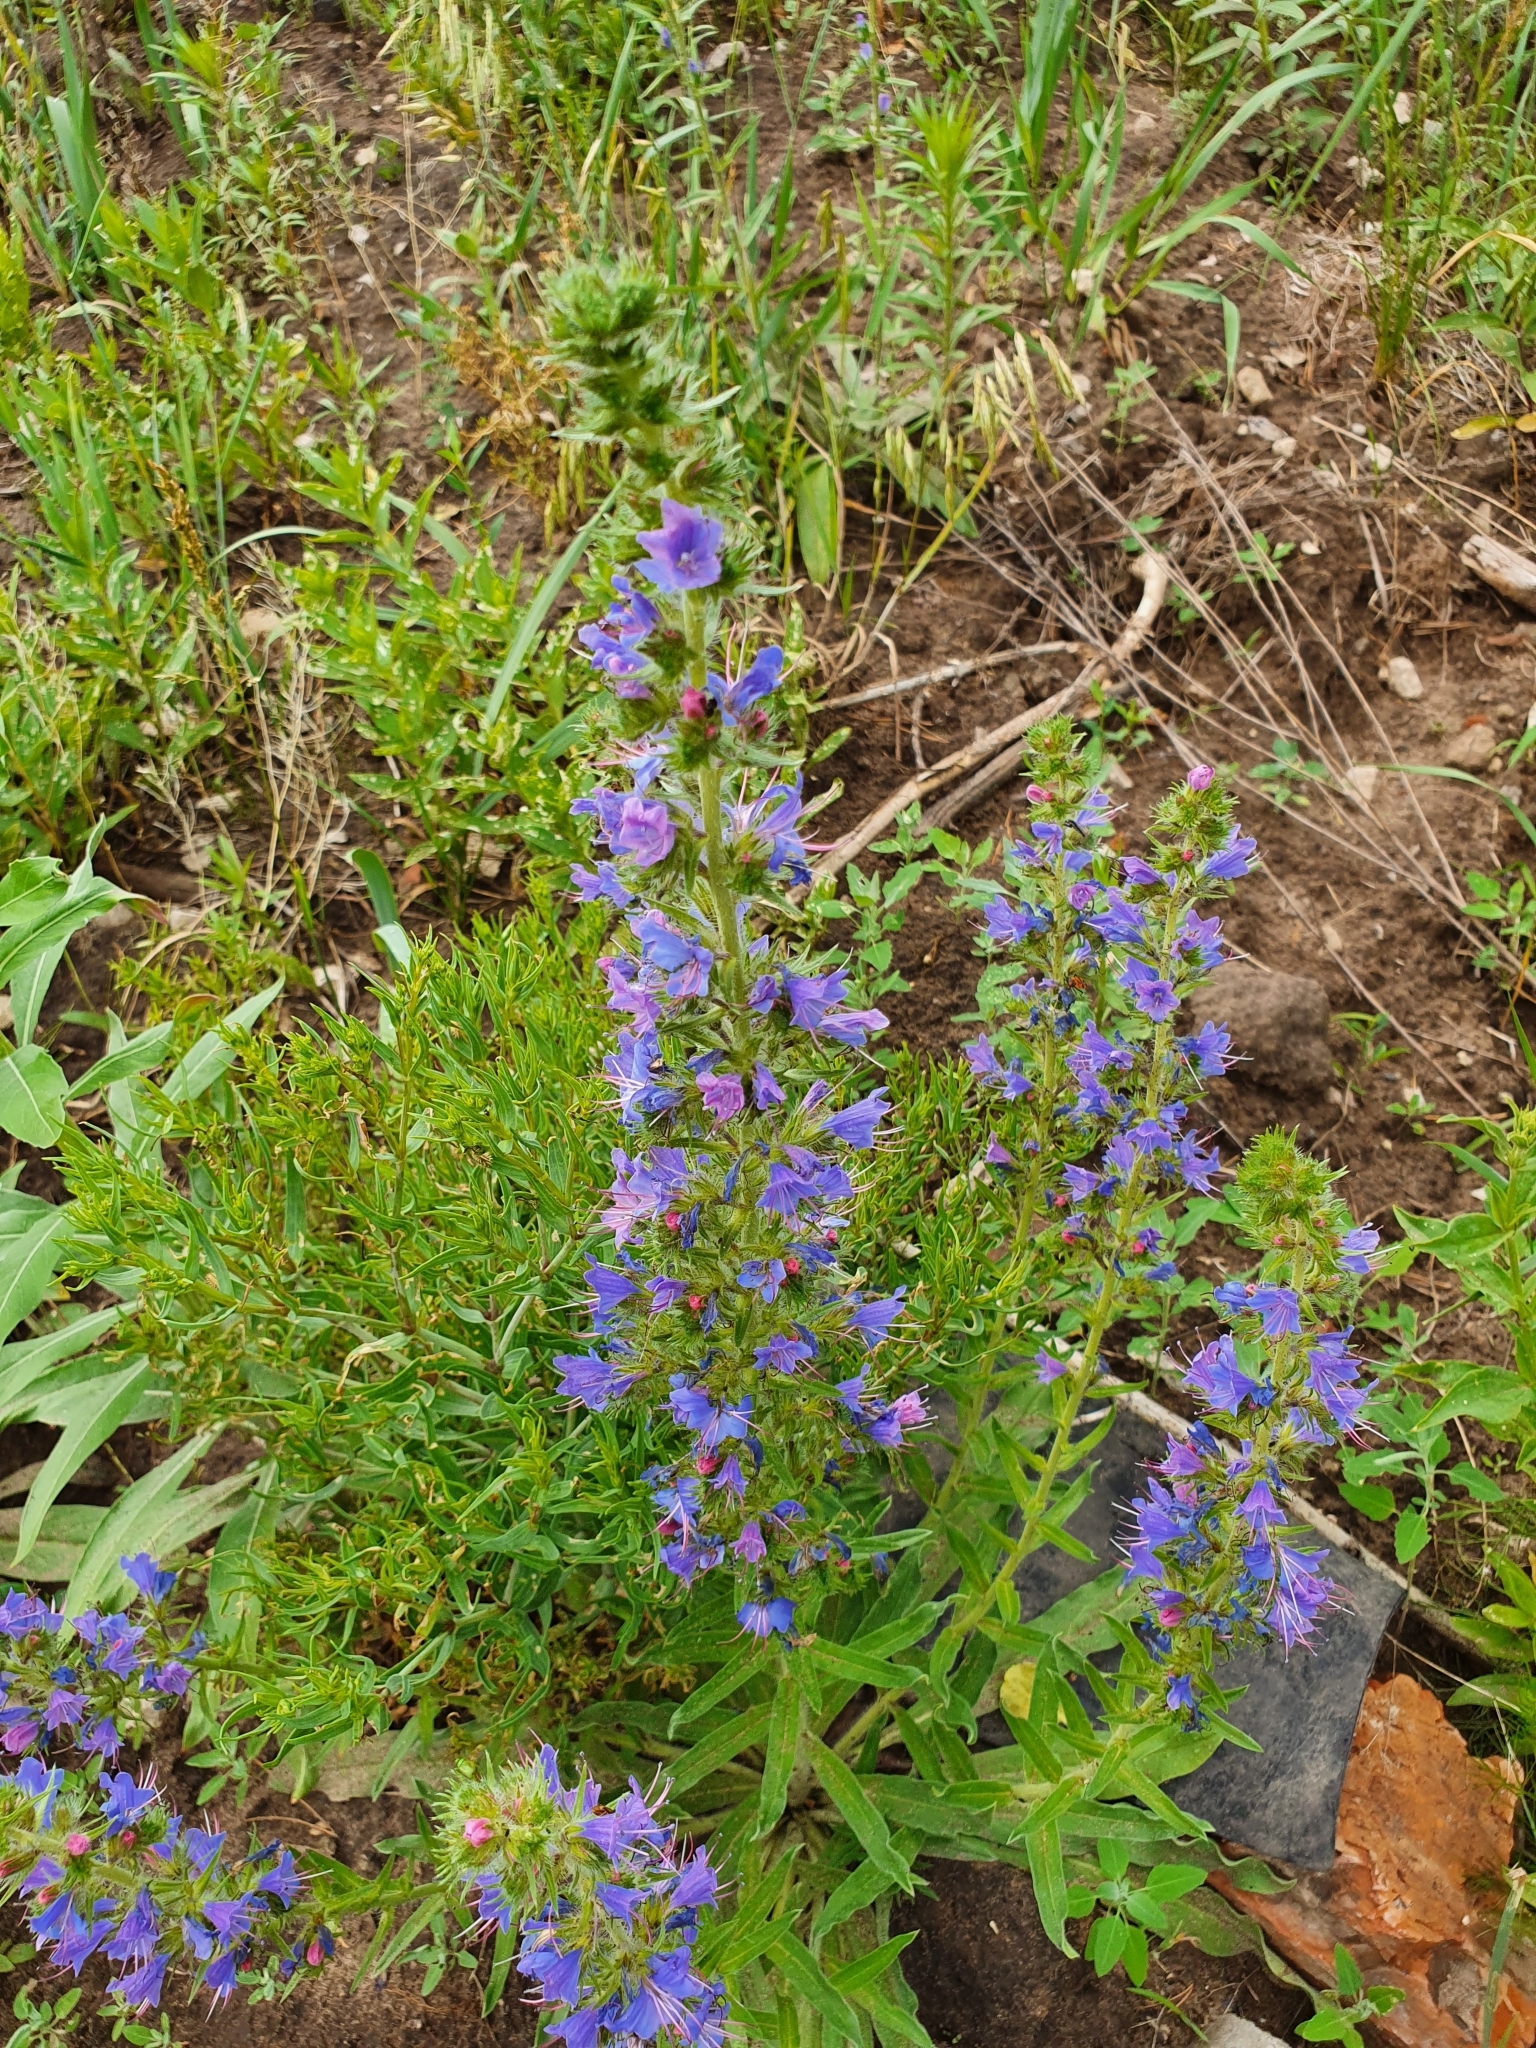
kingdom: Plantae
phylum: Tracheophyta
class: Magnoliopsida
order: Boraginales
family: Boraginaceae
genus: Echium
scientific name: Echium vulgare
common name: Common viper's bugloss
